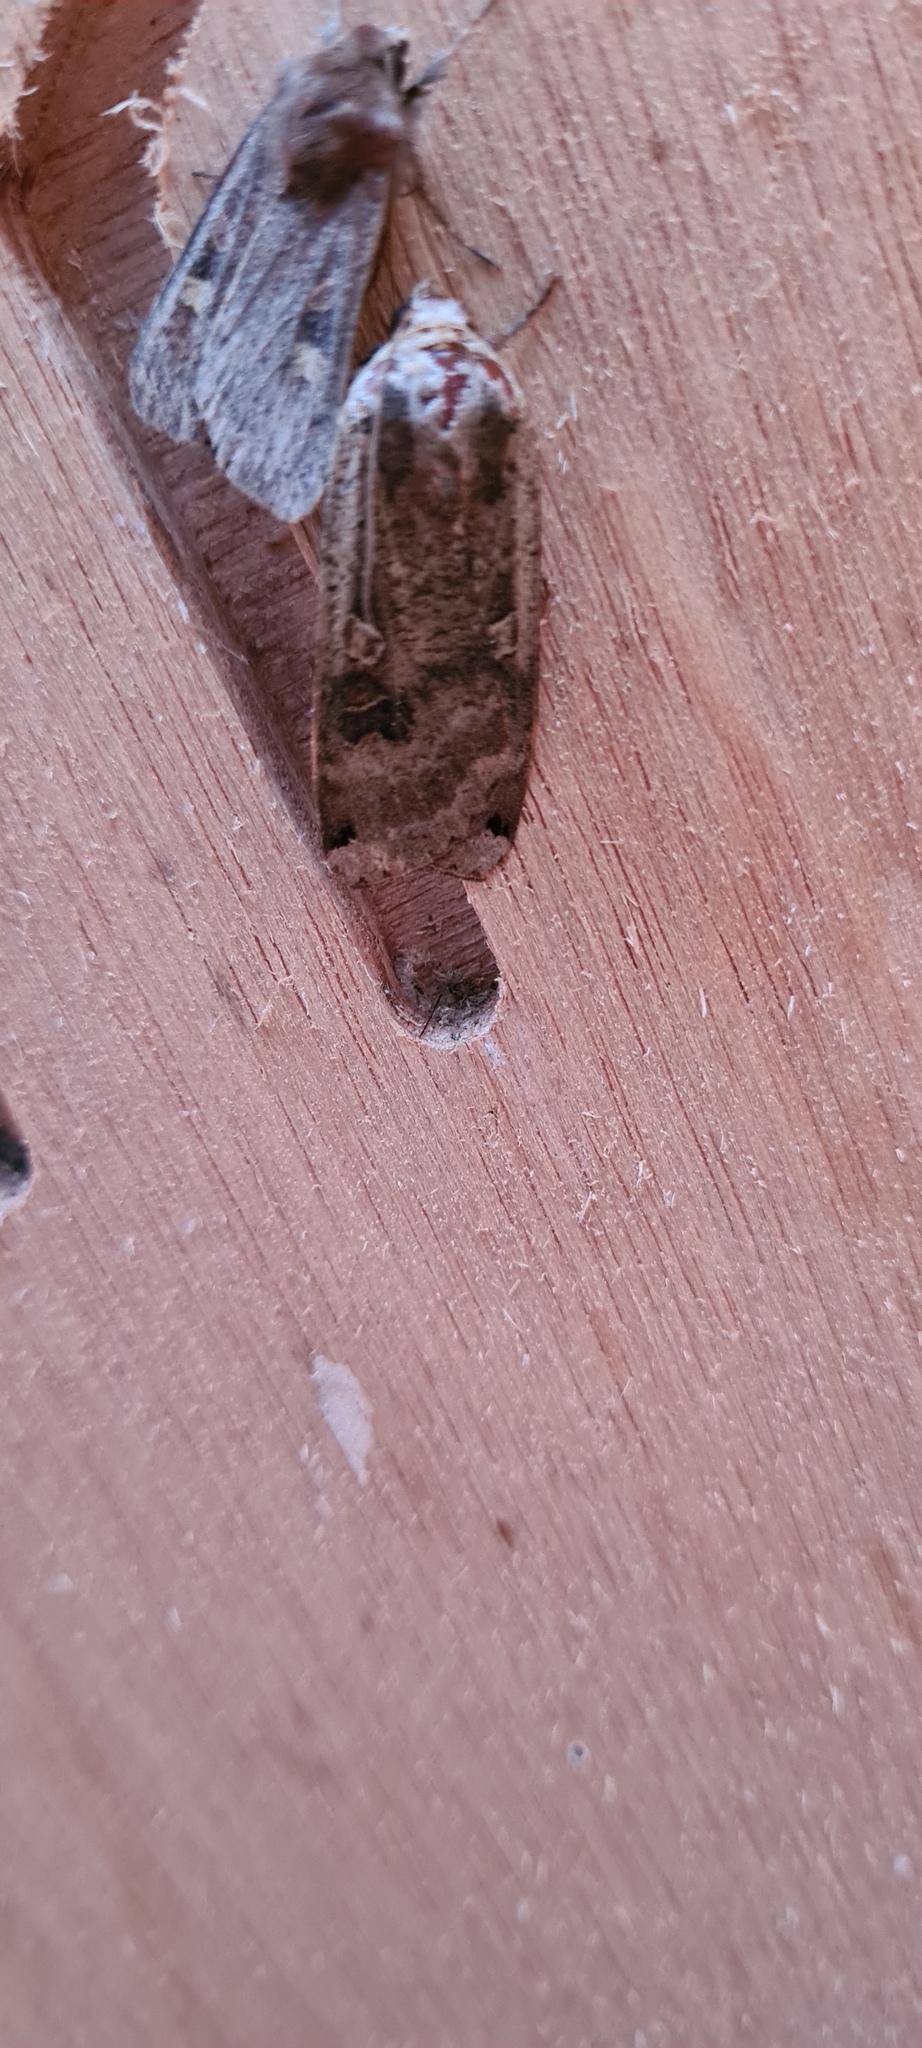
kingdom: Animalia
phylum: Arthropoda
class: Insecta
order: Lepidoptera
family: Noctuidae
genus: Noctua
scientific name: Noctua pronuba
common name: Large yellow underwing
